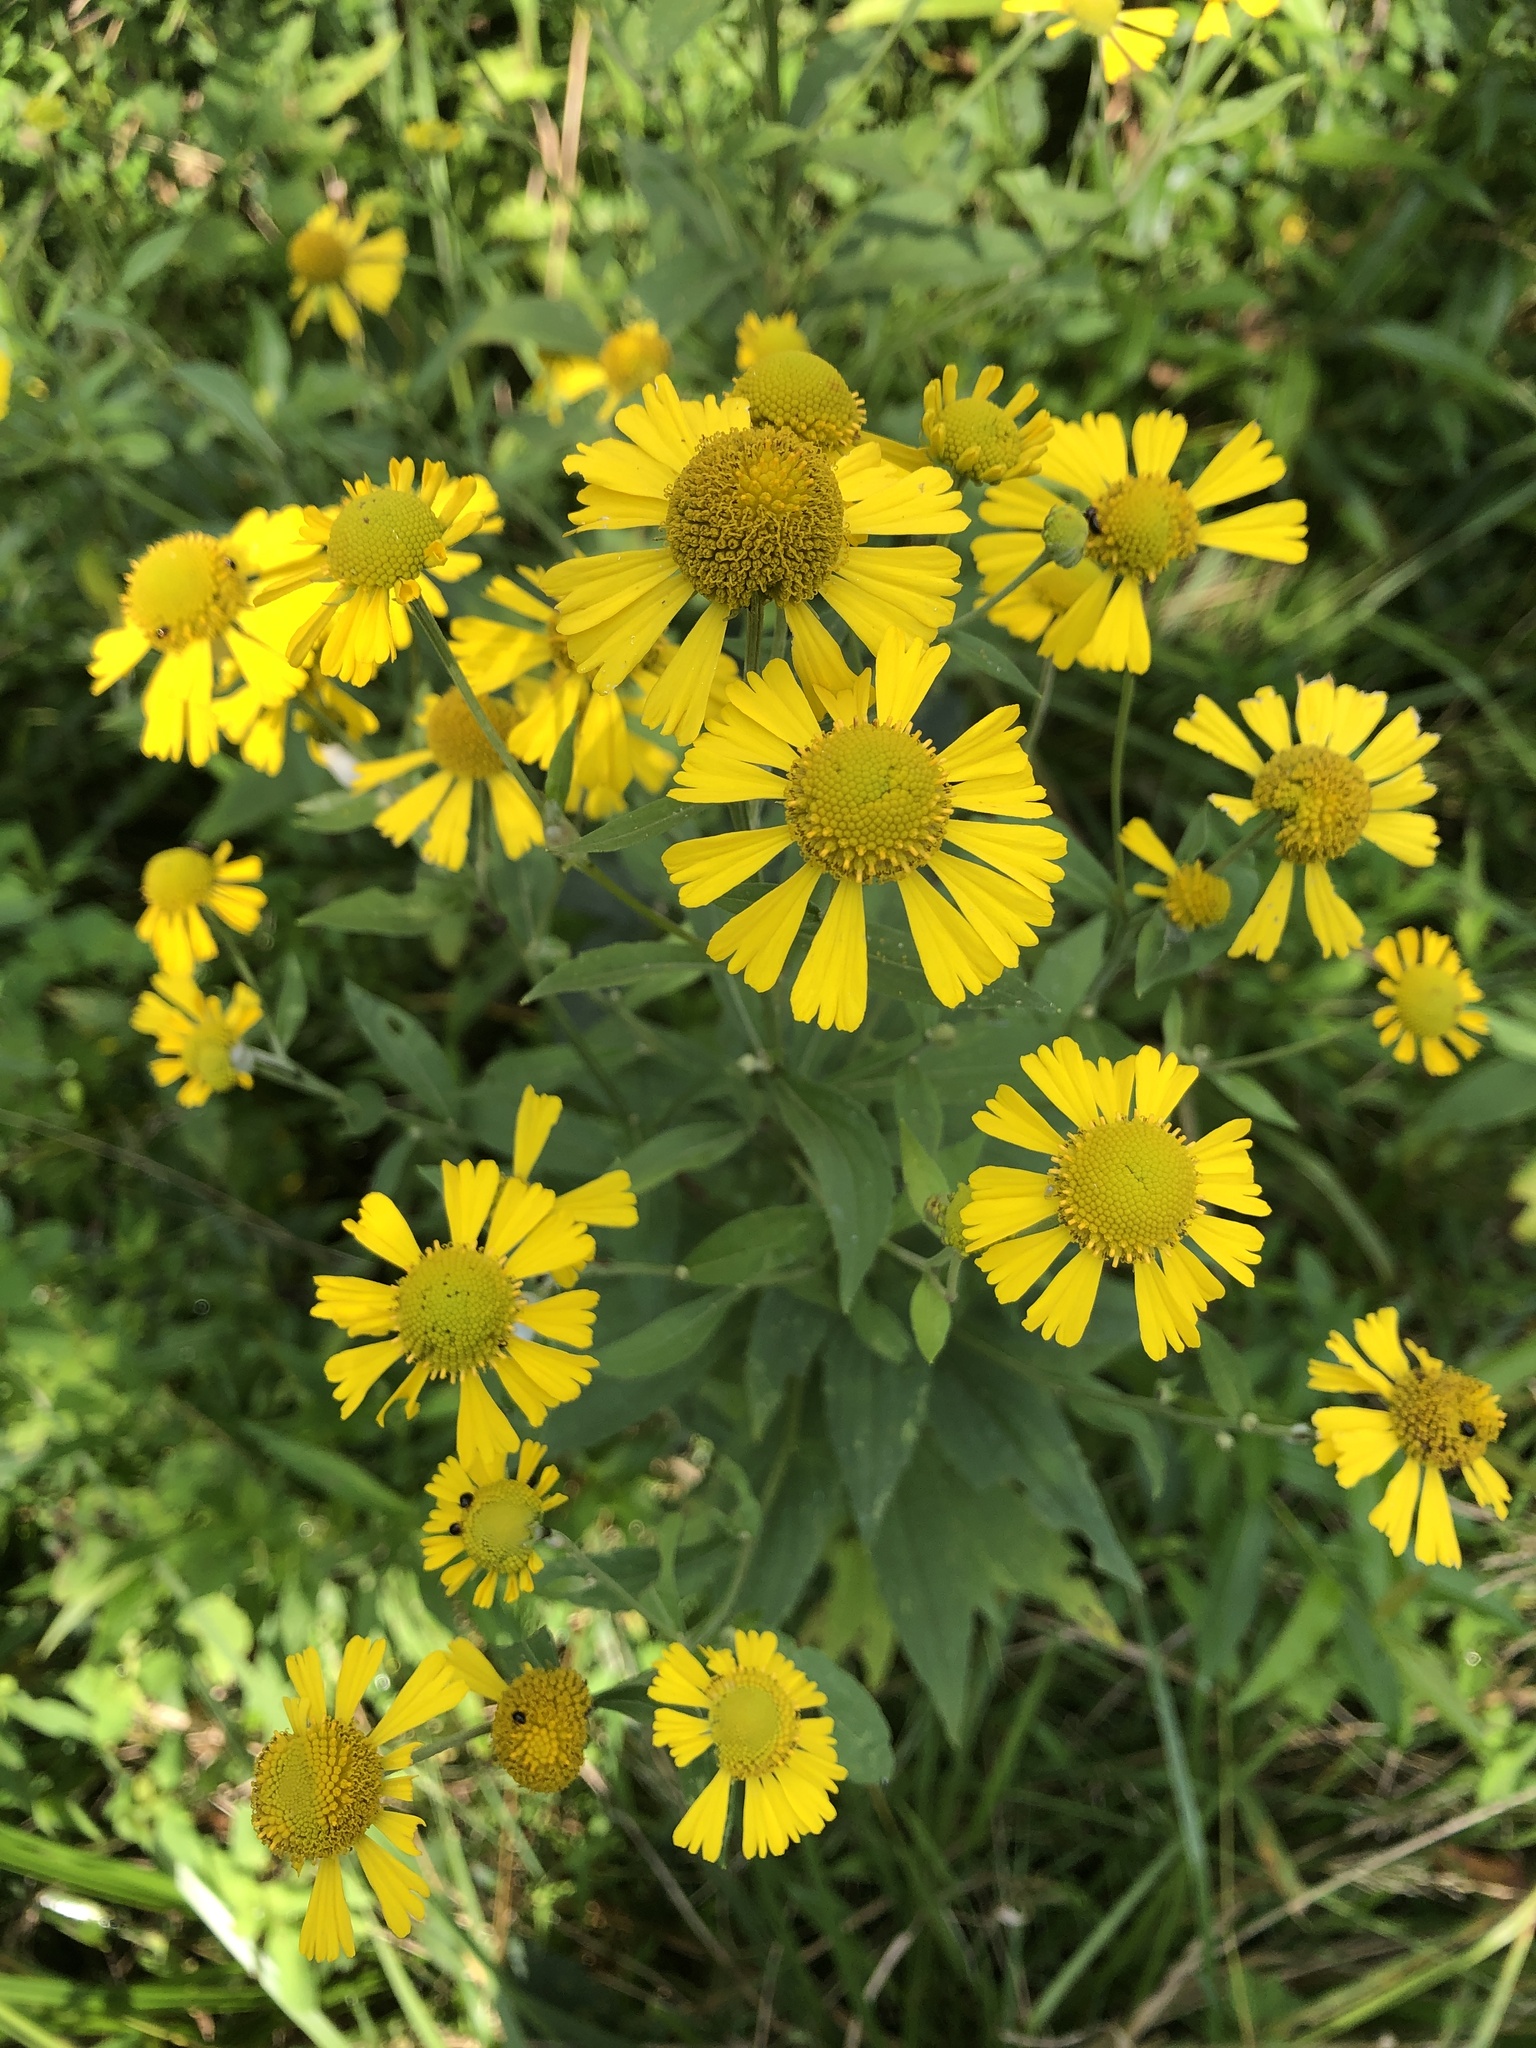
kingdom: Plantae
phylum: Tracheophyta
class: Magnoliopsida
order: Asterales
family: Asteraceae
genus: Helenium
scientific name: Helenium autumnale
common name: Sneezeweed
